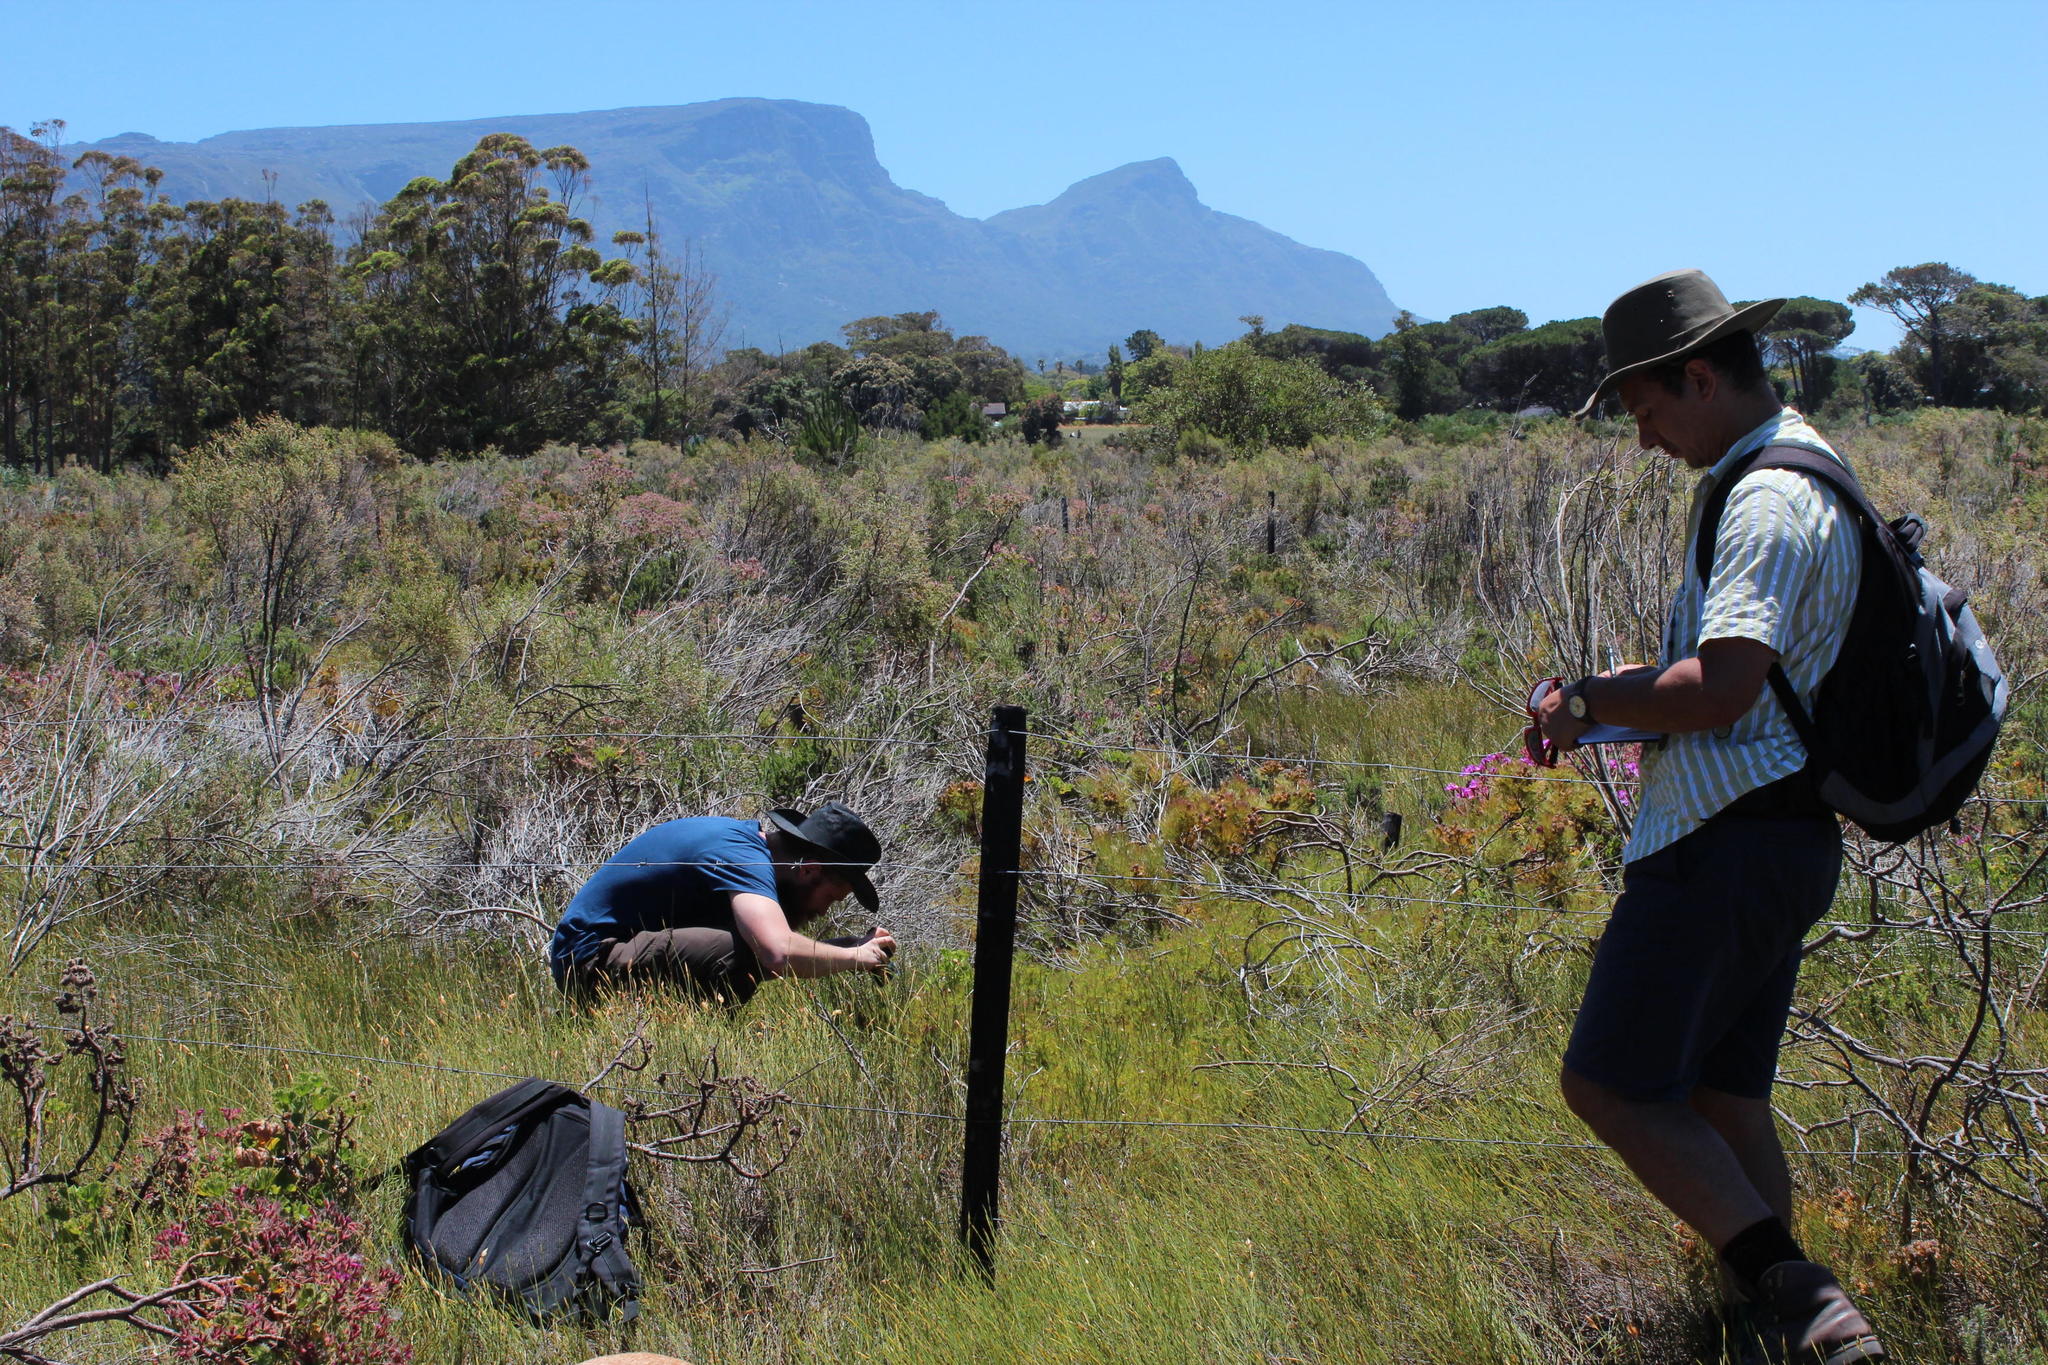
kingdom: Plantae
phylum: Tracheophyta
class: Magnoliopsida
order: Proteales
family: Proteaceae
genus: Diastella
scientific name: Diastella proteoides
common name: Flats silkypuff
